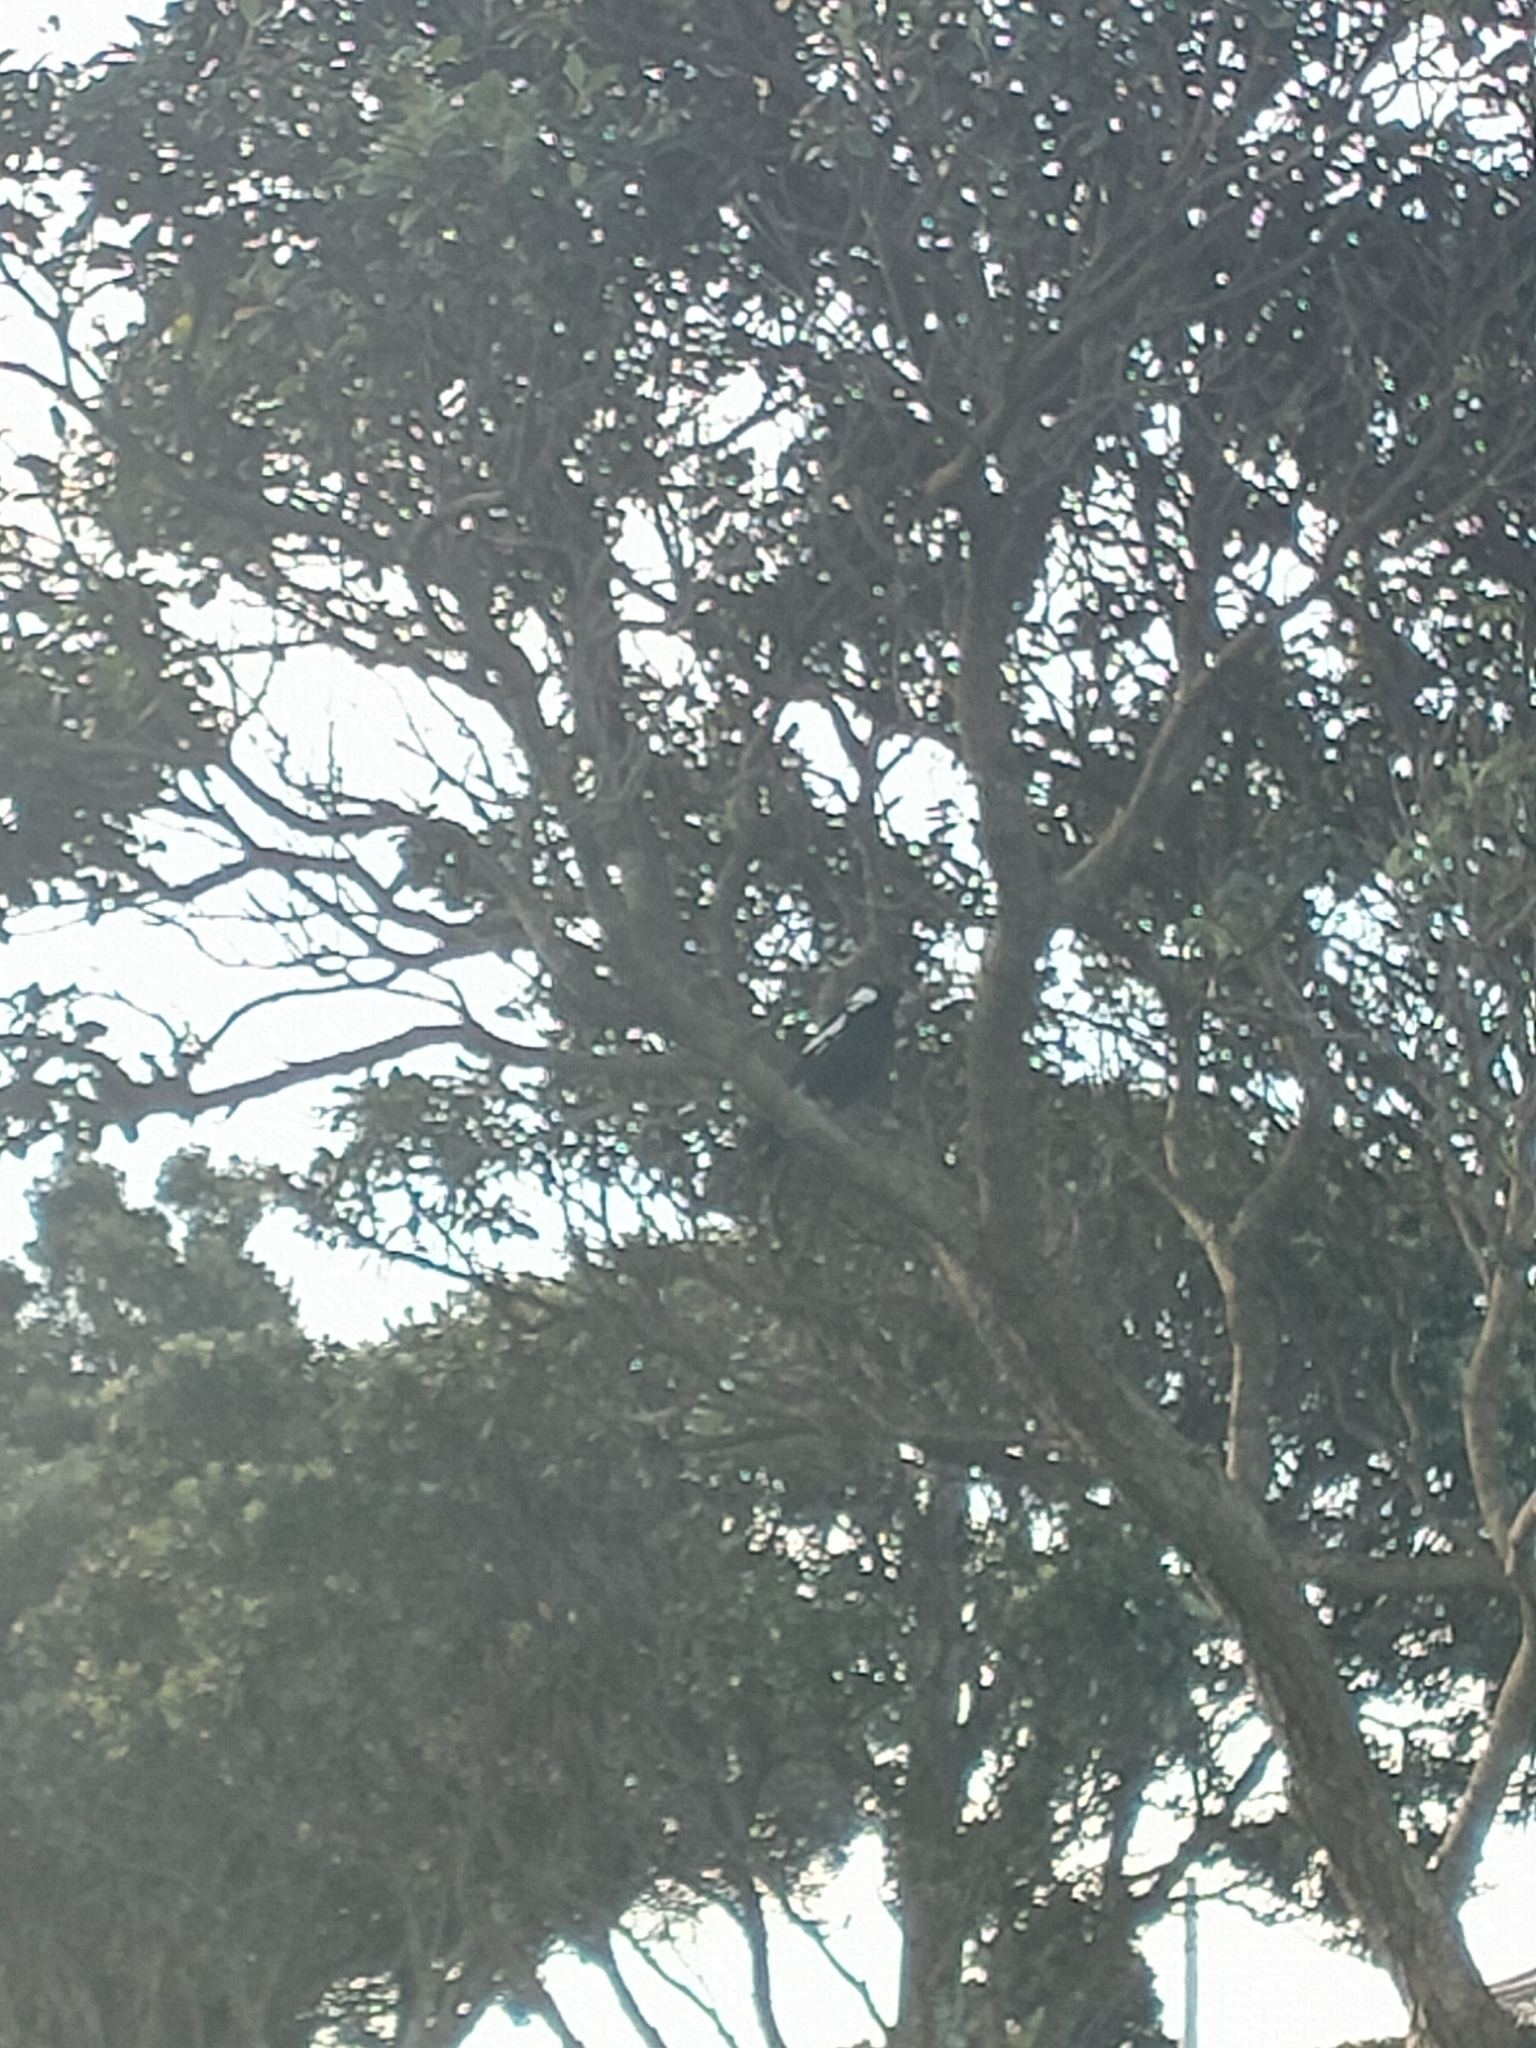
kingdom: Animalia
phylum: Chordata
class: Aves
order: Passeriformes
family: Cracticidae
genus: Gymnorhina
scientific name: Gymnorhina tibicen
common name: Australian magpie
